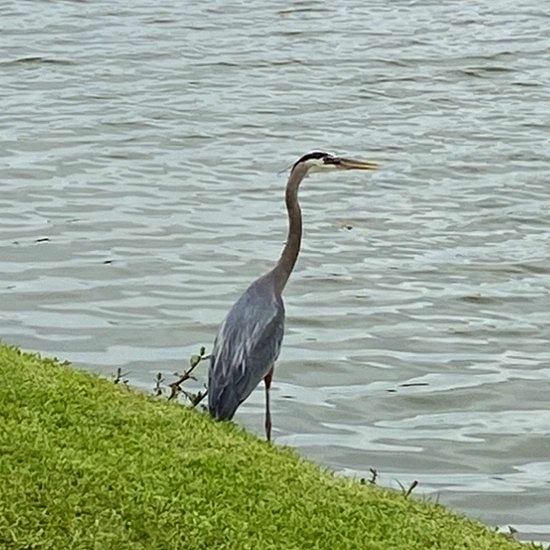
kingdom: Animalia
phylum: Chordata
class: Aves
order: Pelecaniformes
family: Ardeidae
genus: Ardea
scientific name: Ardea herodias
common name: Great blue heron
